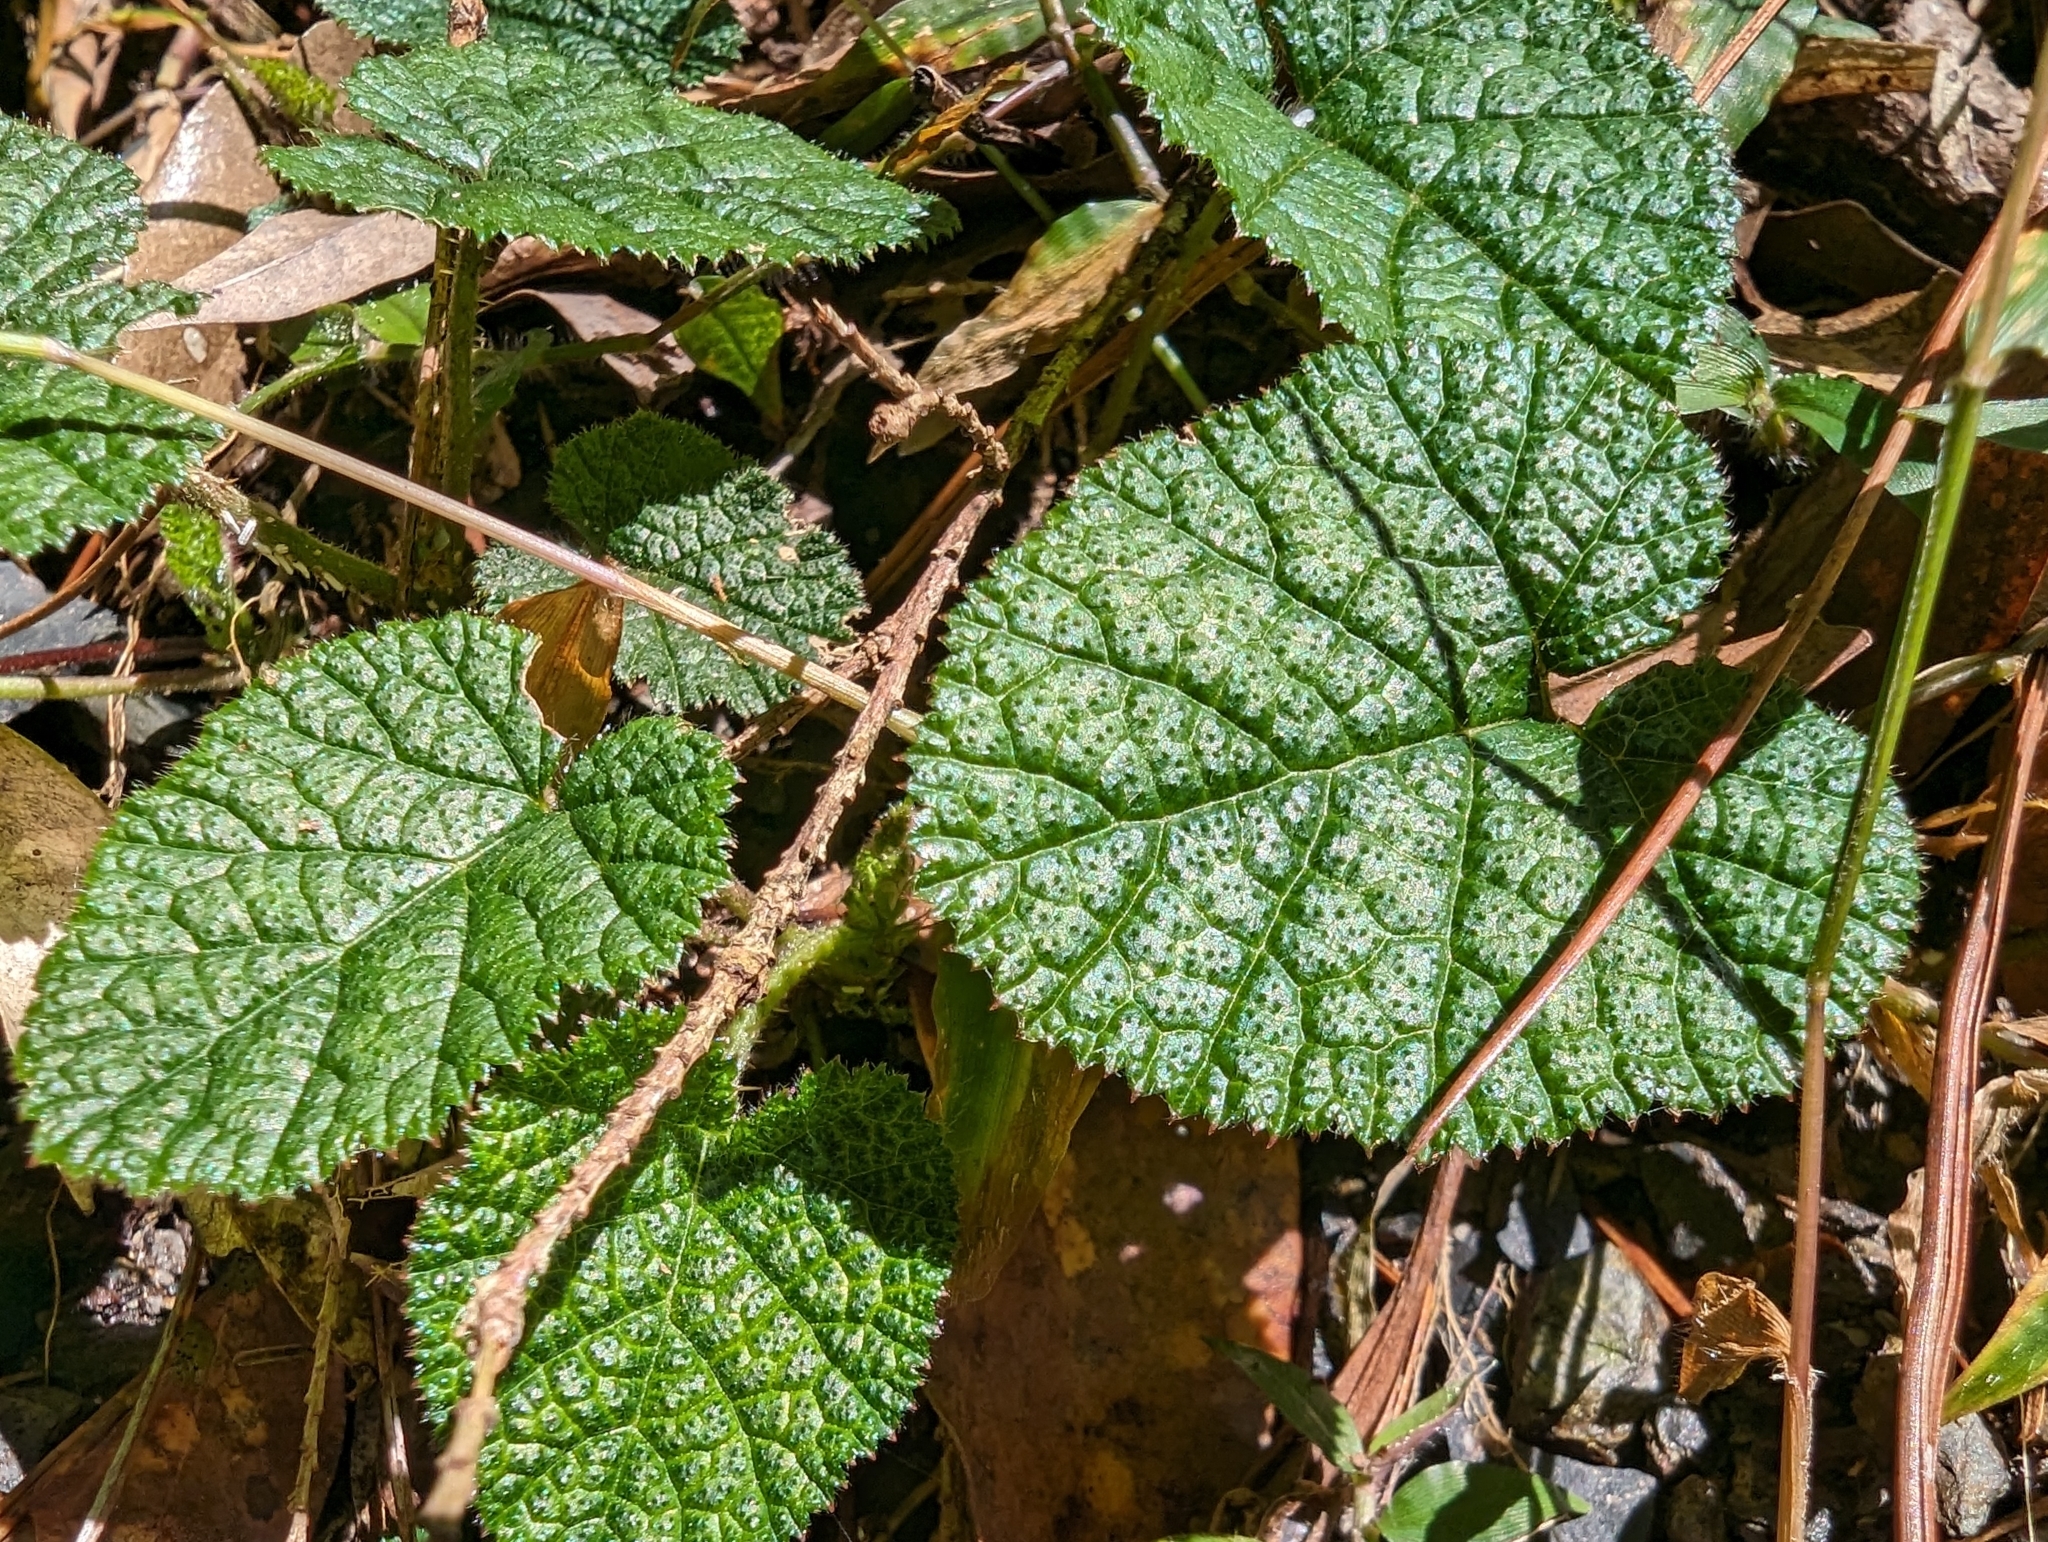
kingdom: Plantae
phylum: Tracheophyta
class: Magnoliopsida
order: Rosales
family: Rosaceae
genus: Rubus
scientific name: Rubus pectinellus
